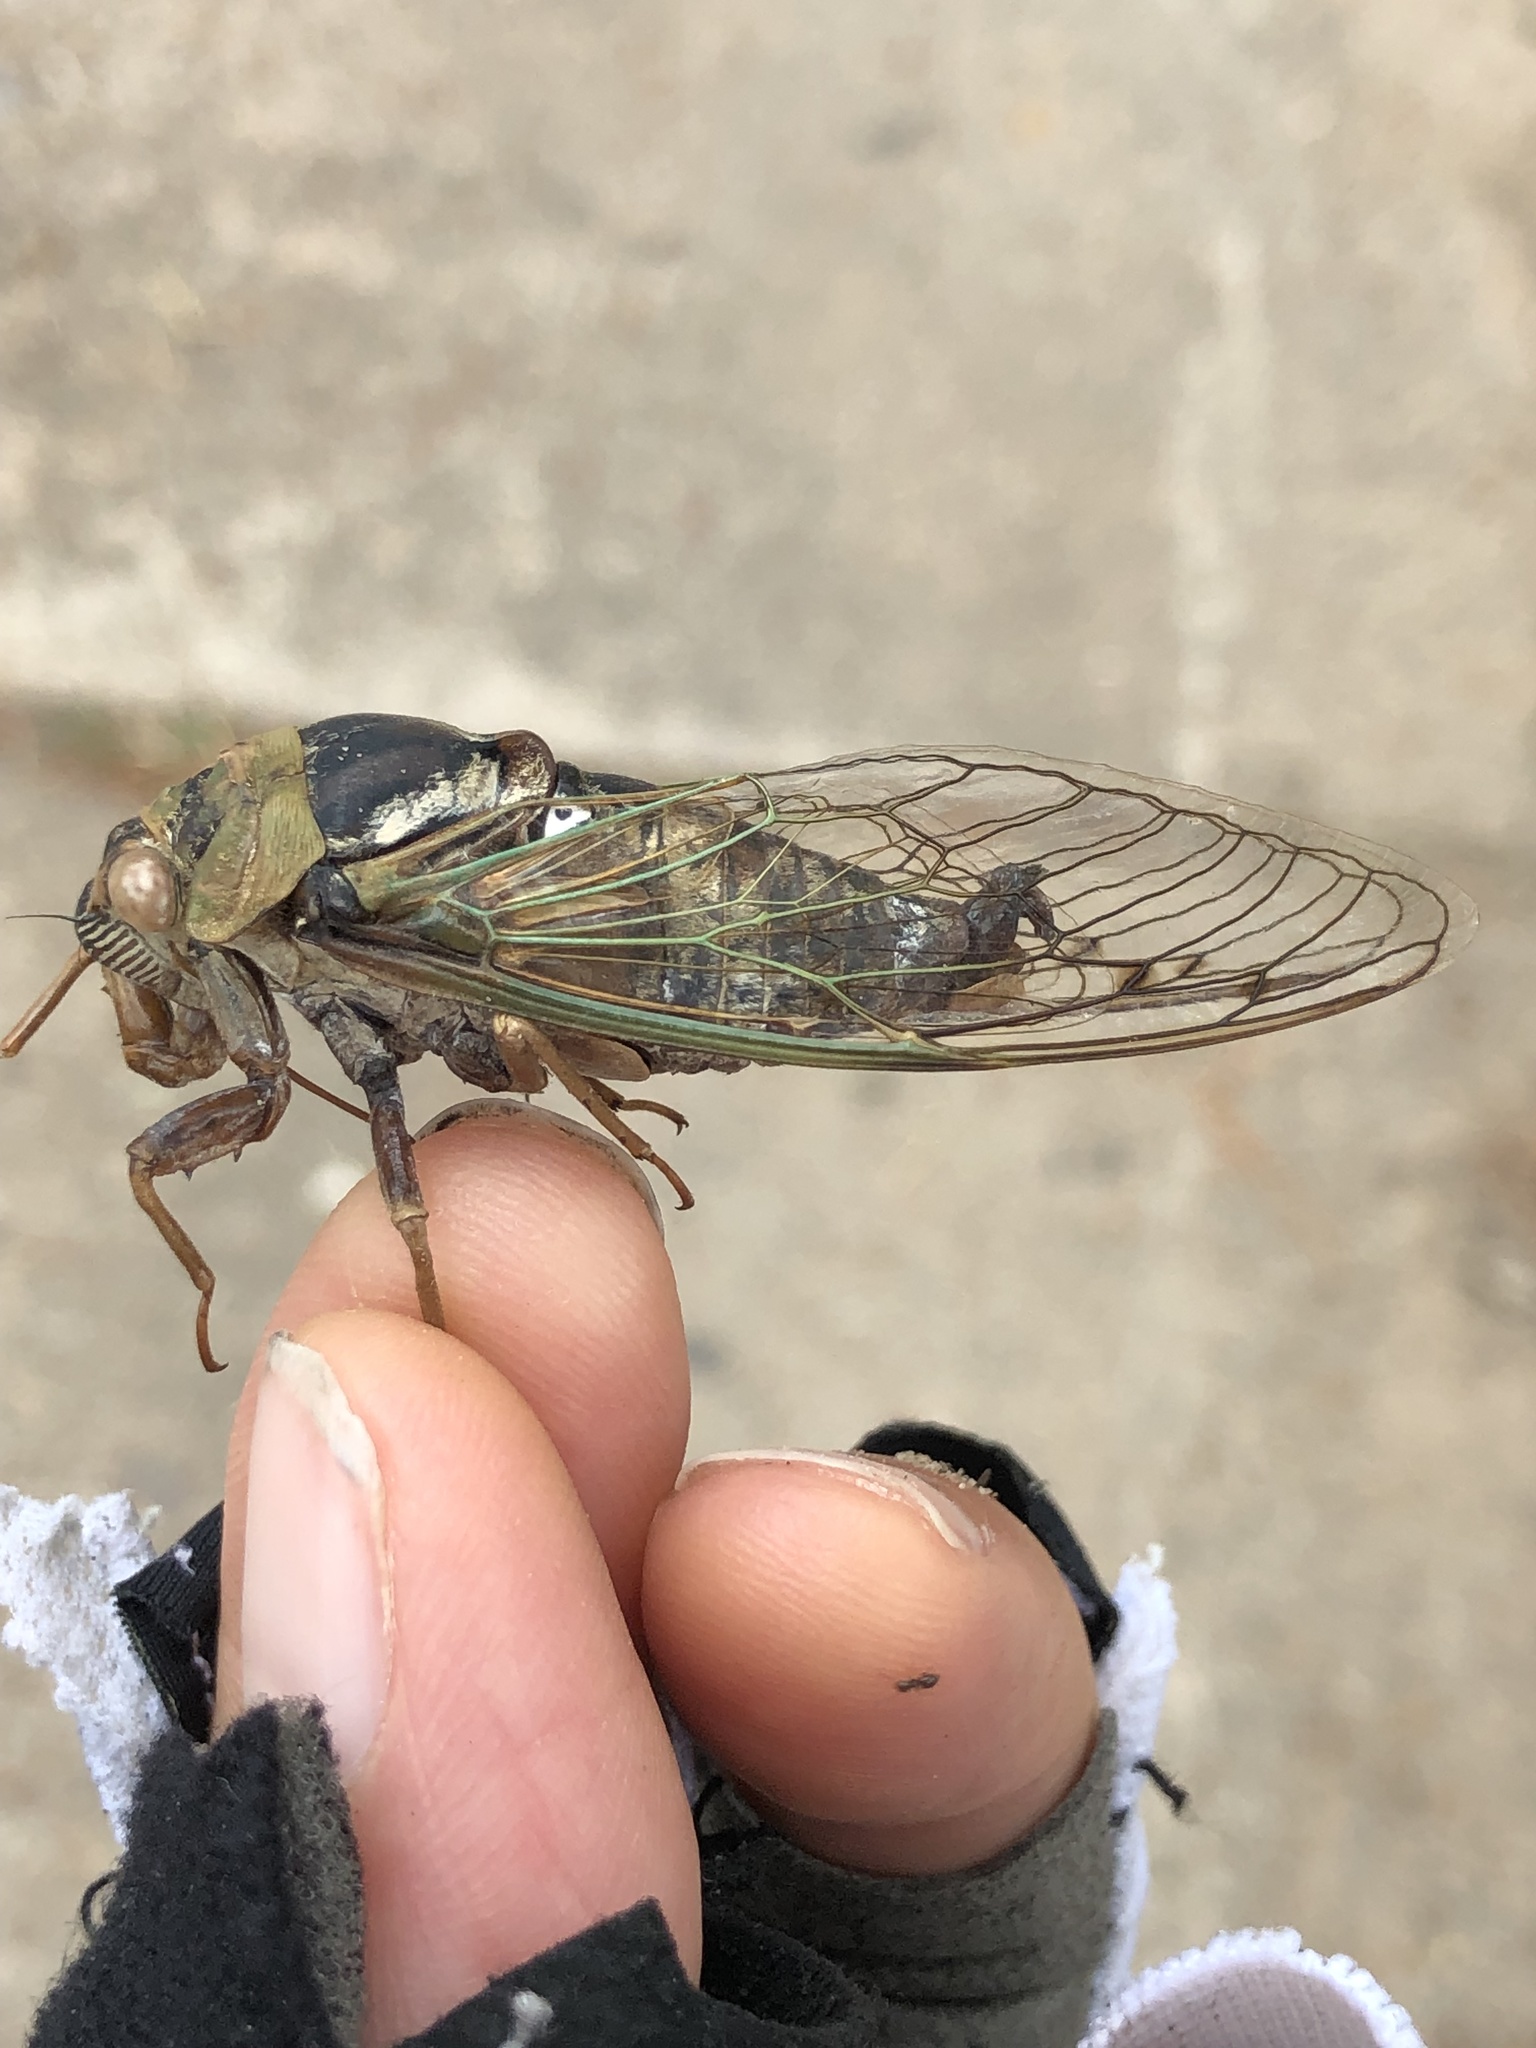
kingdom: Animalia
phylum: Arthropoda
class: Insecta
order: Hemiptera
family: Cicadidae
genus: Megatibicen
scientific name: Megatibicen resh
